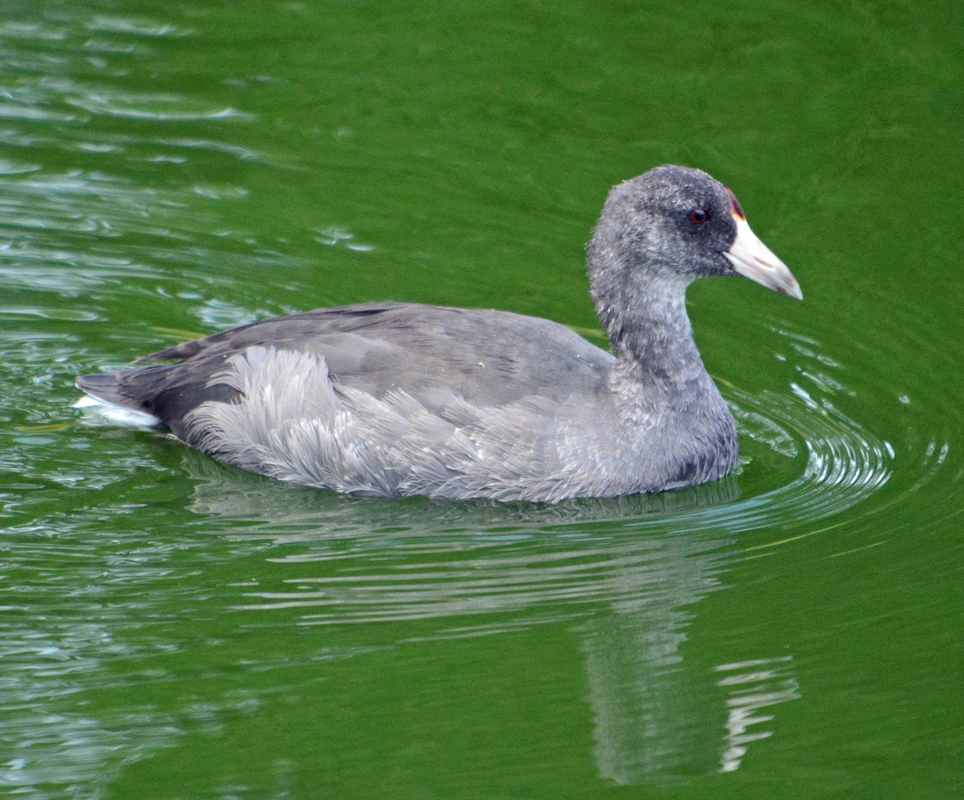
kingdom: Animalia
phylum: Chordata
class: Aves
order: Gruiformes
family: Rallidae
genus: Fulica
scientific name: Fulica americana
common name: American coot
